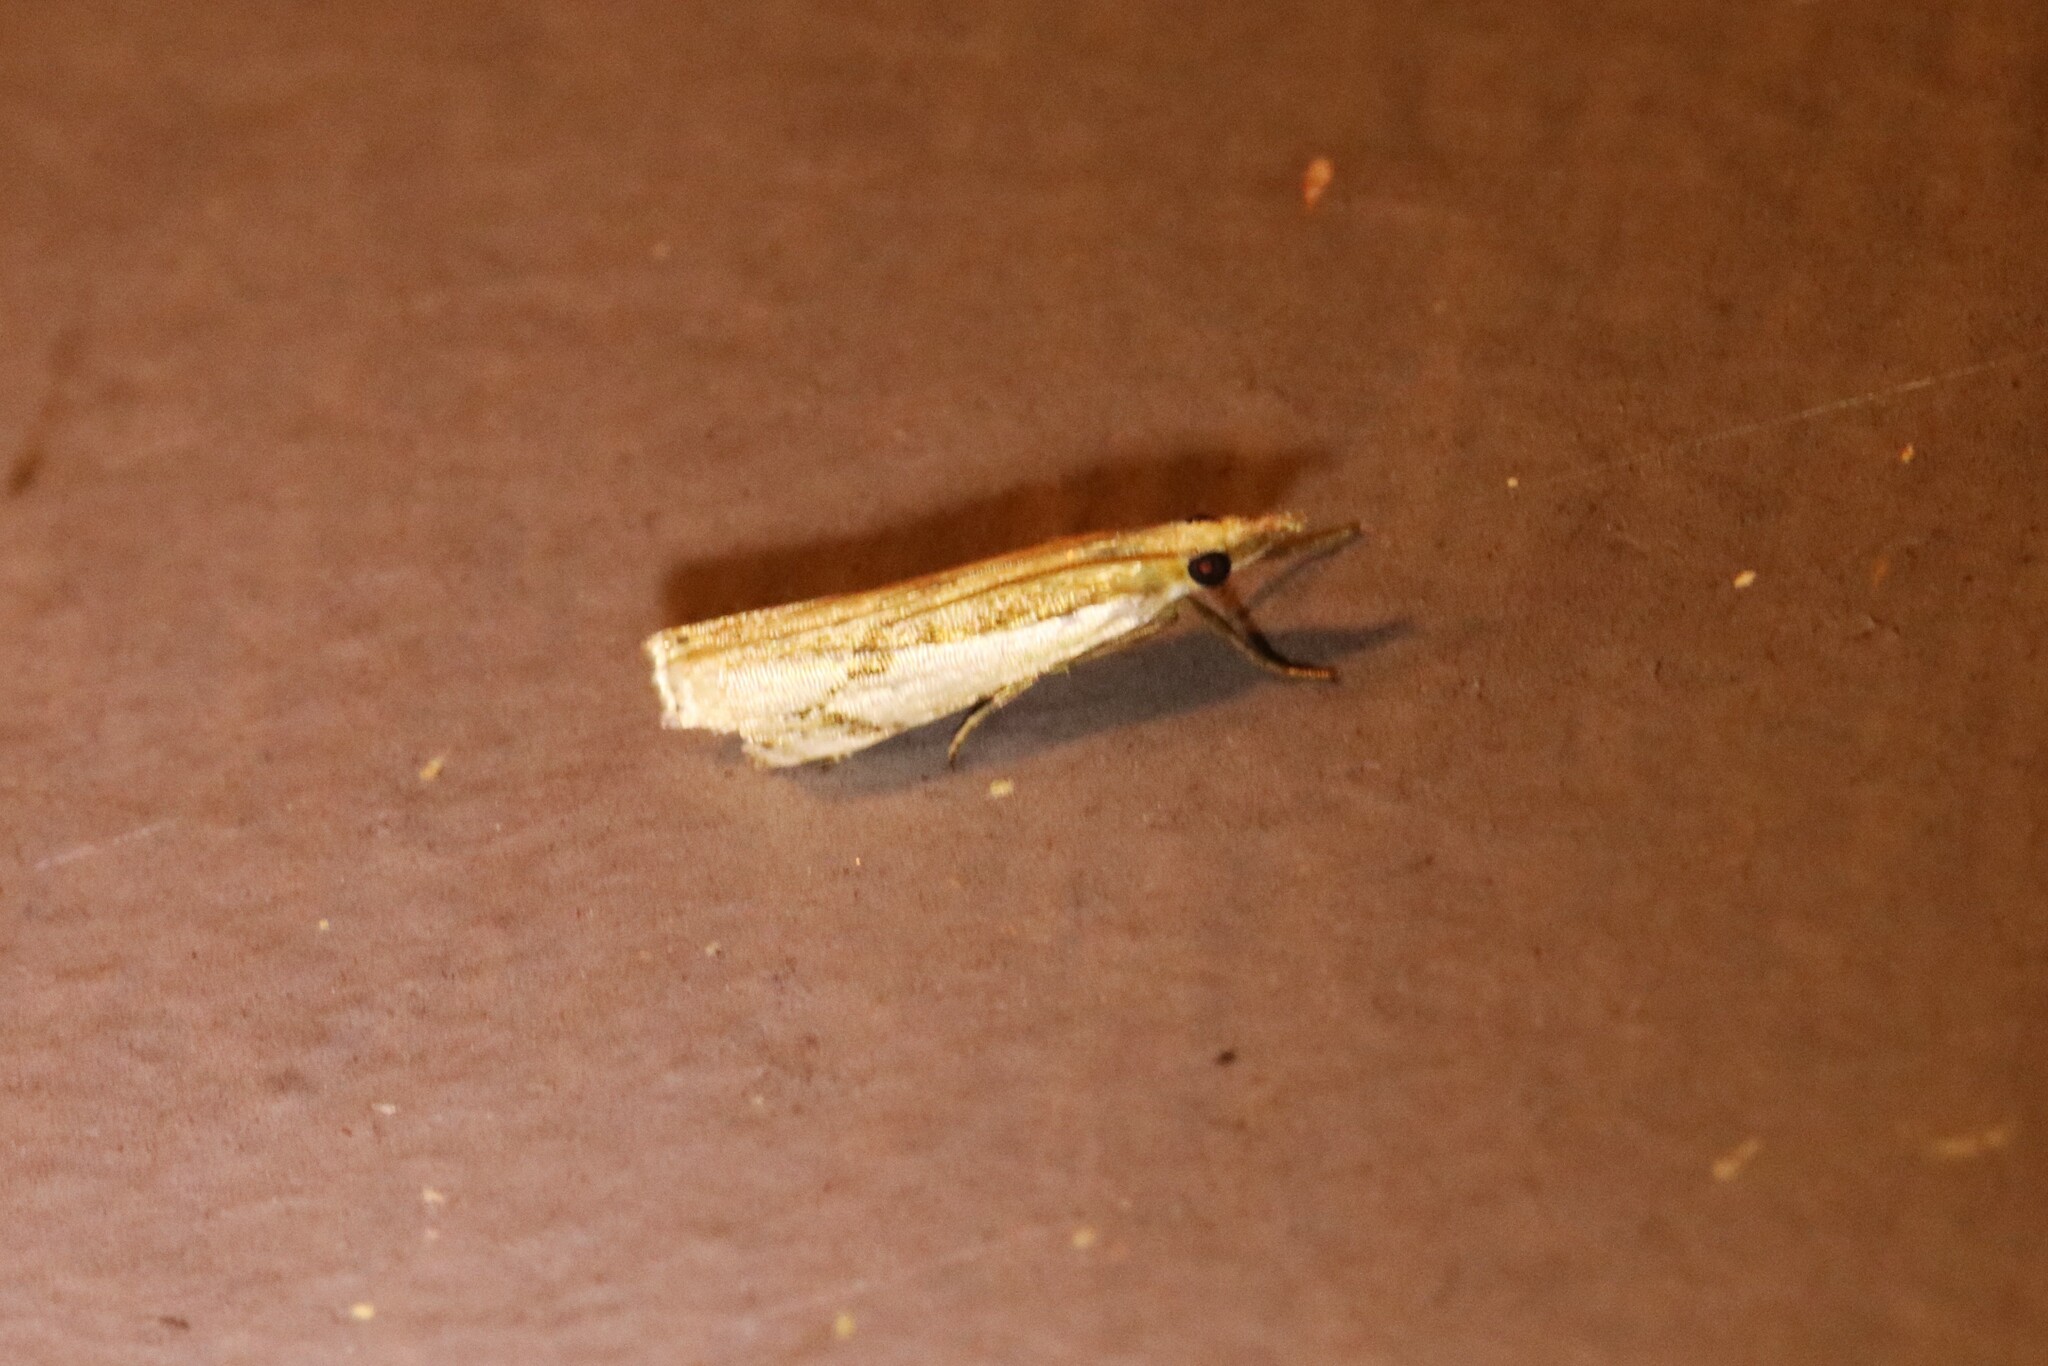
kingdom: Animalia
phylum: Arthropoda
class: Insecta
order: Lepidoptera
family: Crambidae
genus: Crambus
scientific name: Crambus agitatellus
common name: Double-banded grass-veneer
